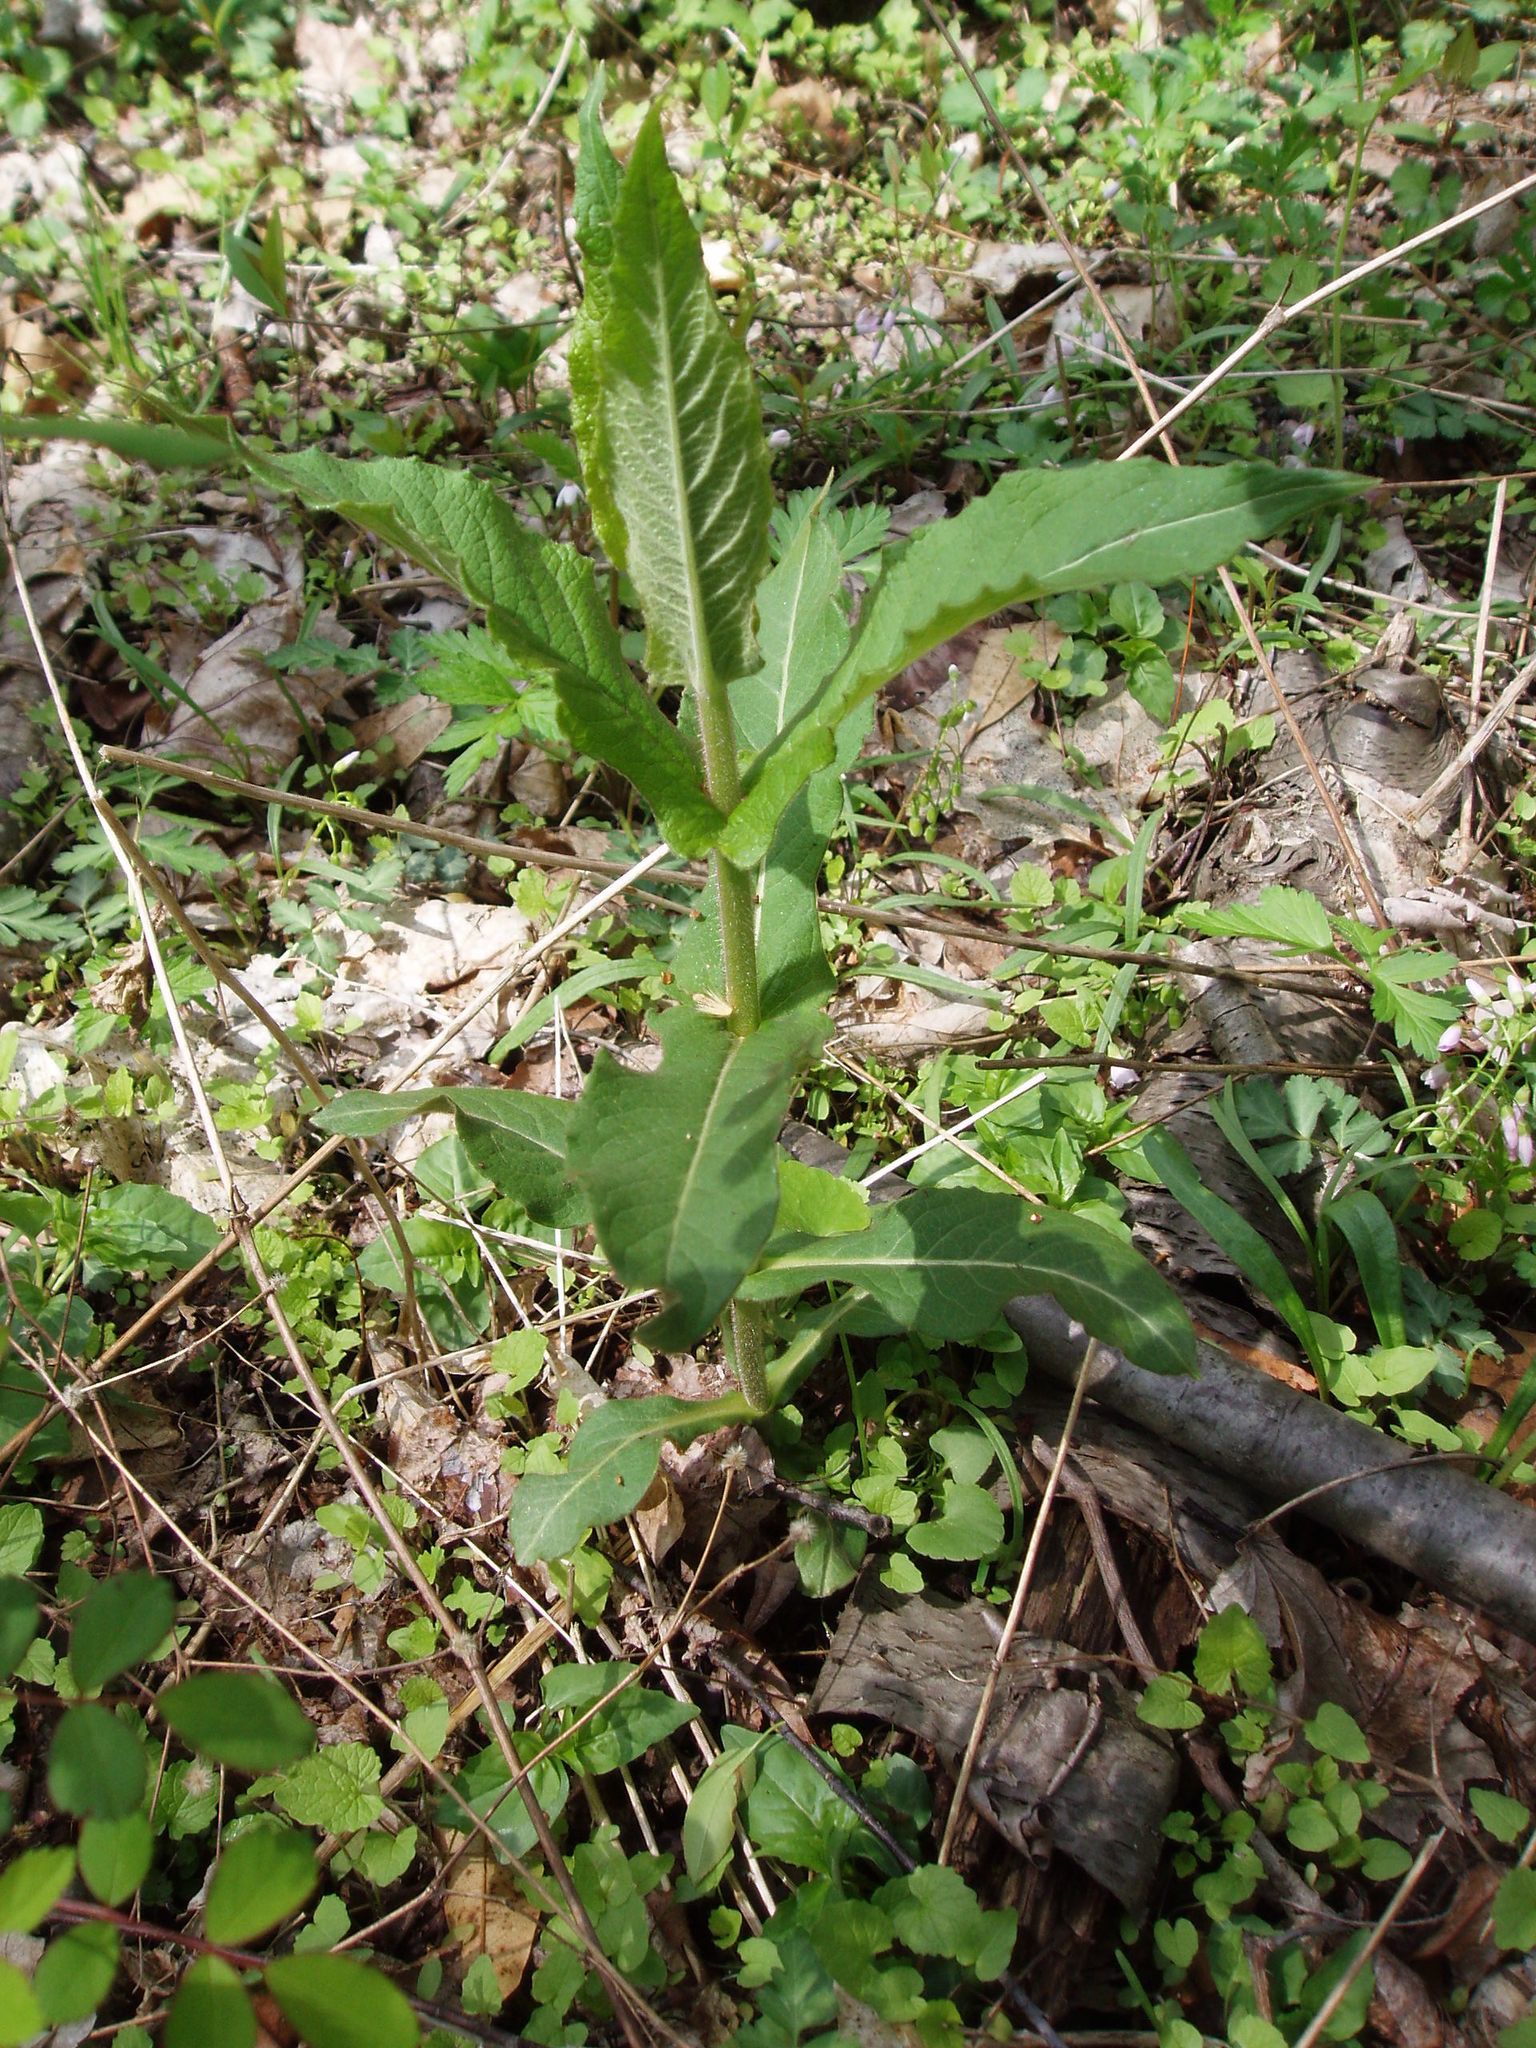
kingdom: Plantae
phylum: Tracheophyta
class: Magnoliopsida
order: Dipsacales
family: Caprifoliaceae
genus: Triosteum
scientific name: Triosteum perfoliatum
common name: Common horse-gentian
